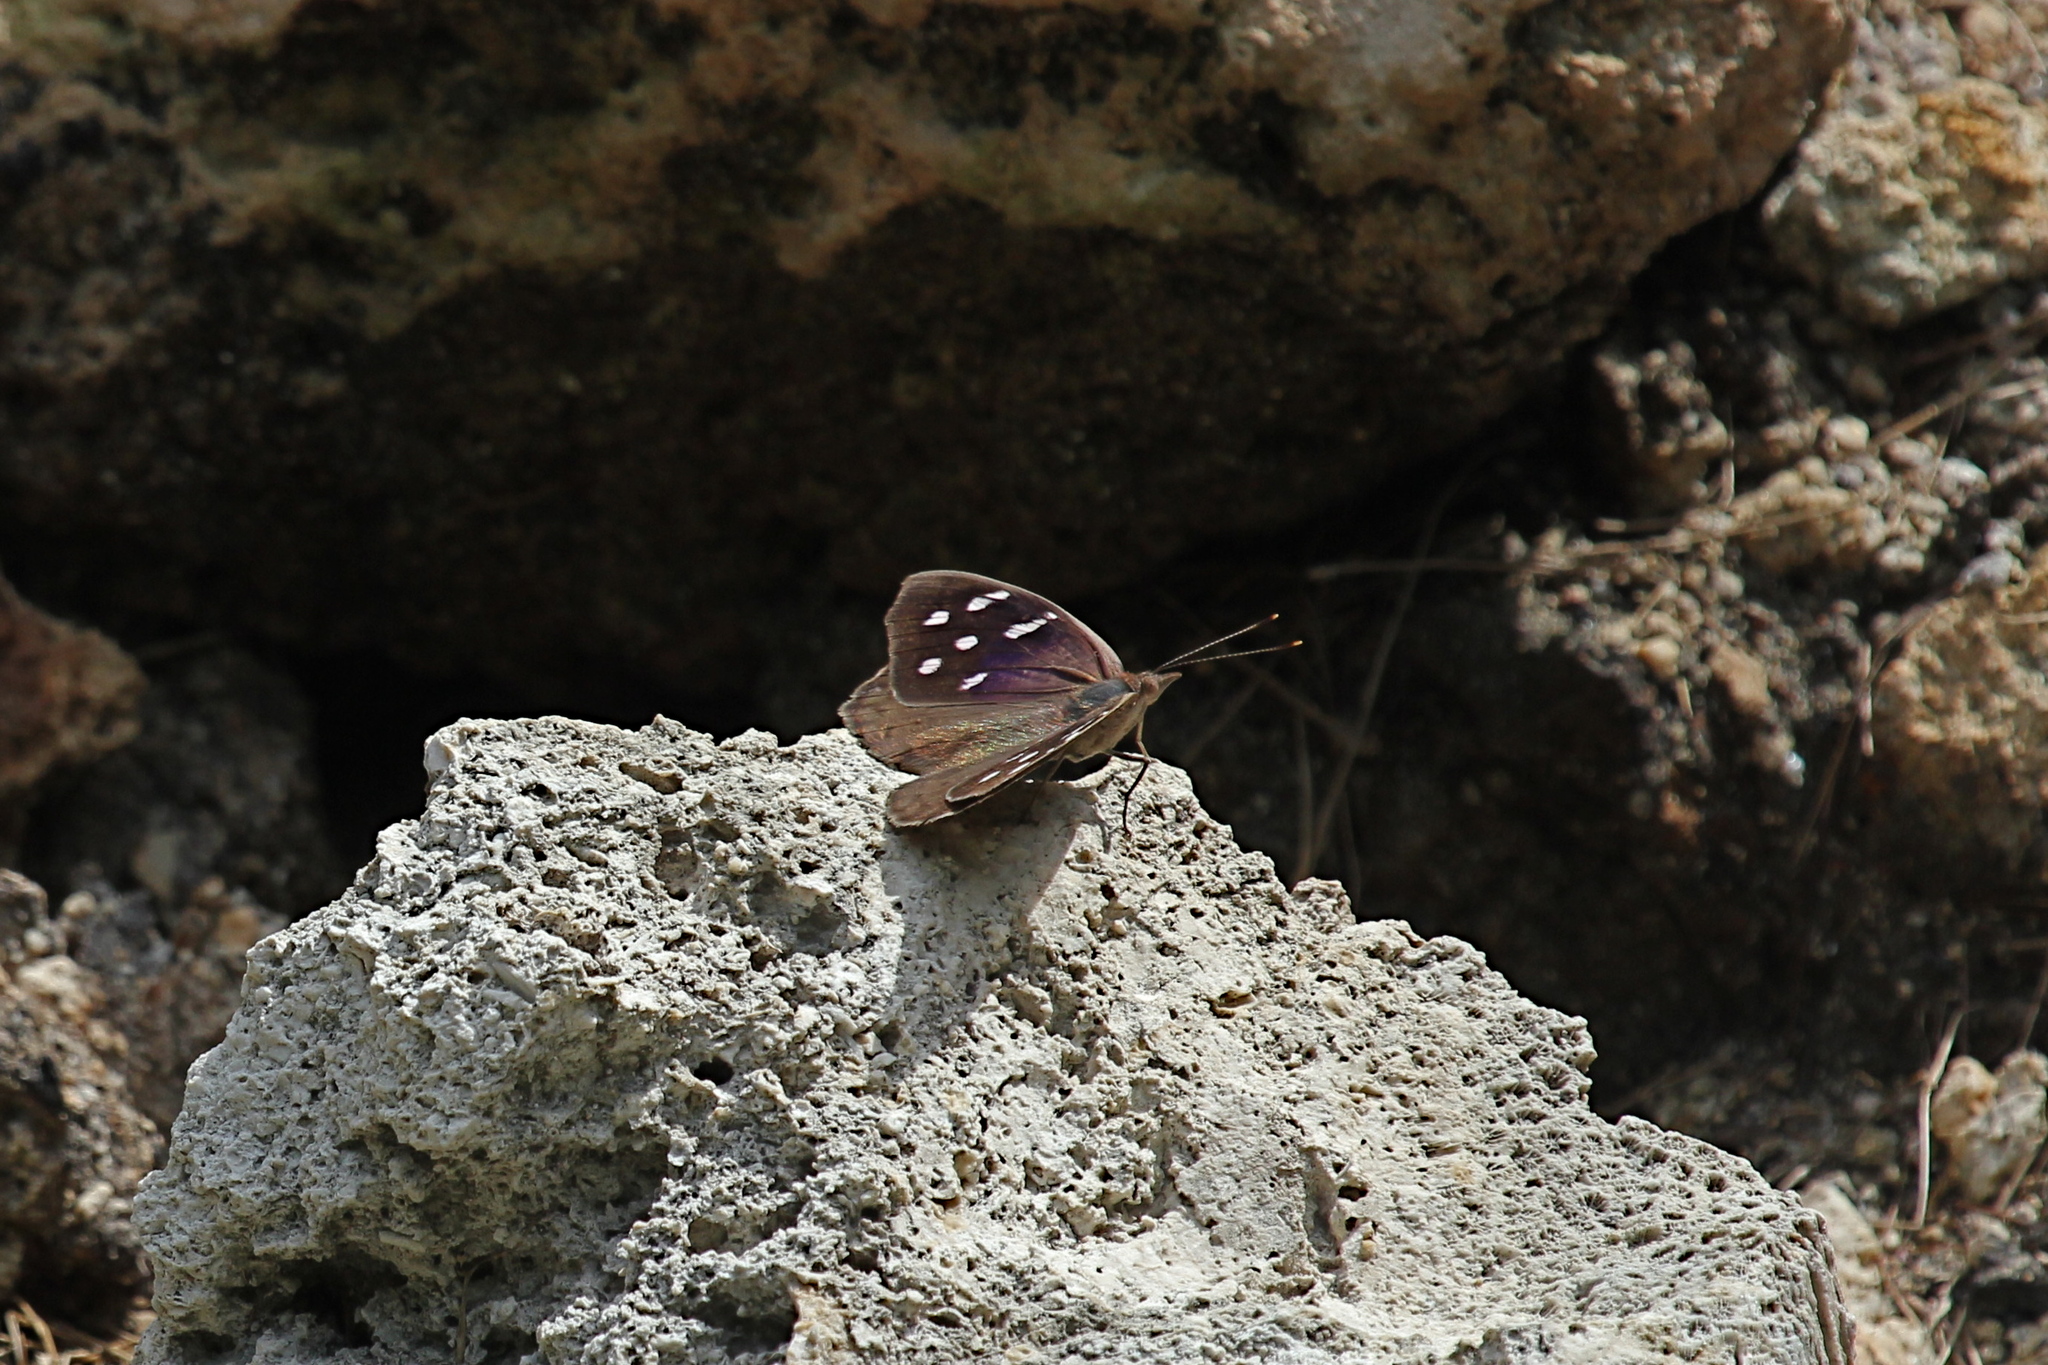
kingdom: Animalia
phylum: Arthropoda
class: Insecta
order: Lepidoptera
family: Nymphalidae
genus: Eunica
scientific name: Eunica tatila
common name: Florida purplewing
